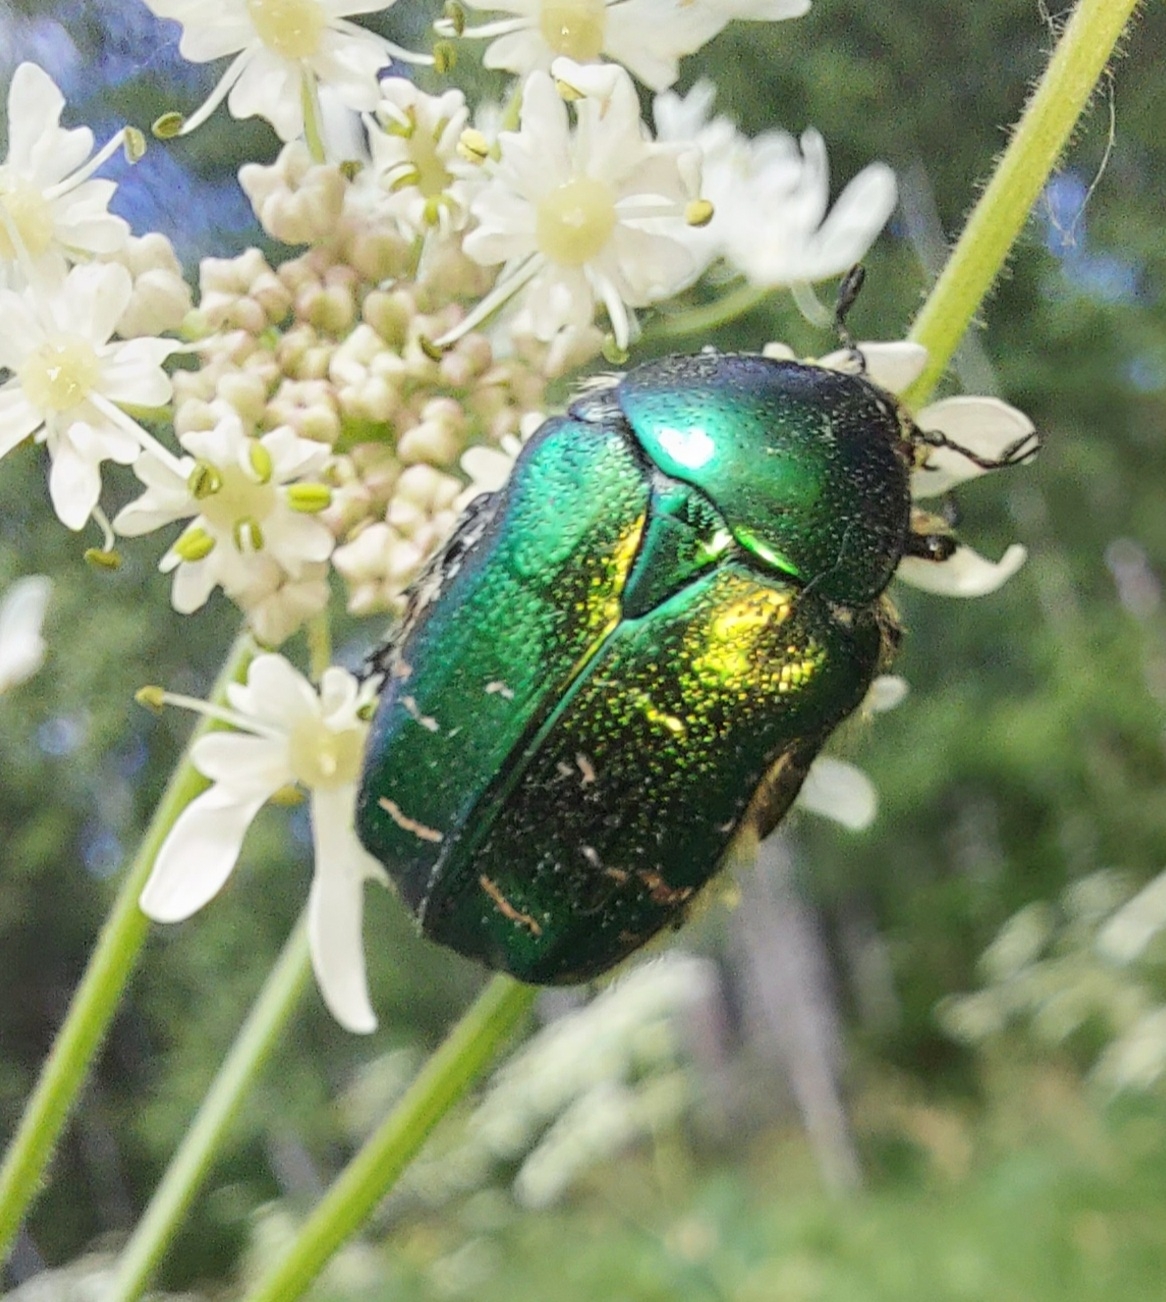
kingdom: Animalia
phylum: Arthropoda
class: Insecta
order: Coleoptera
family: Scarabaeidae
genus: Cetonia
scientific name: Cetonia aurata
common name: Rose chafer
